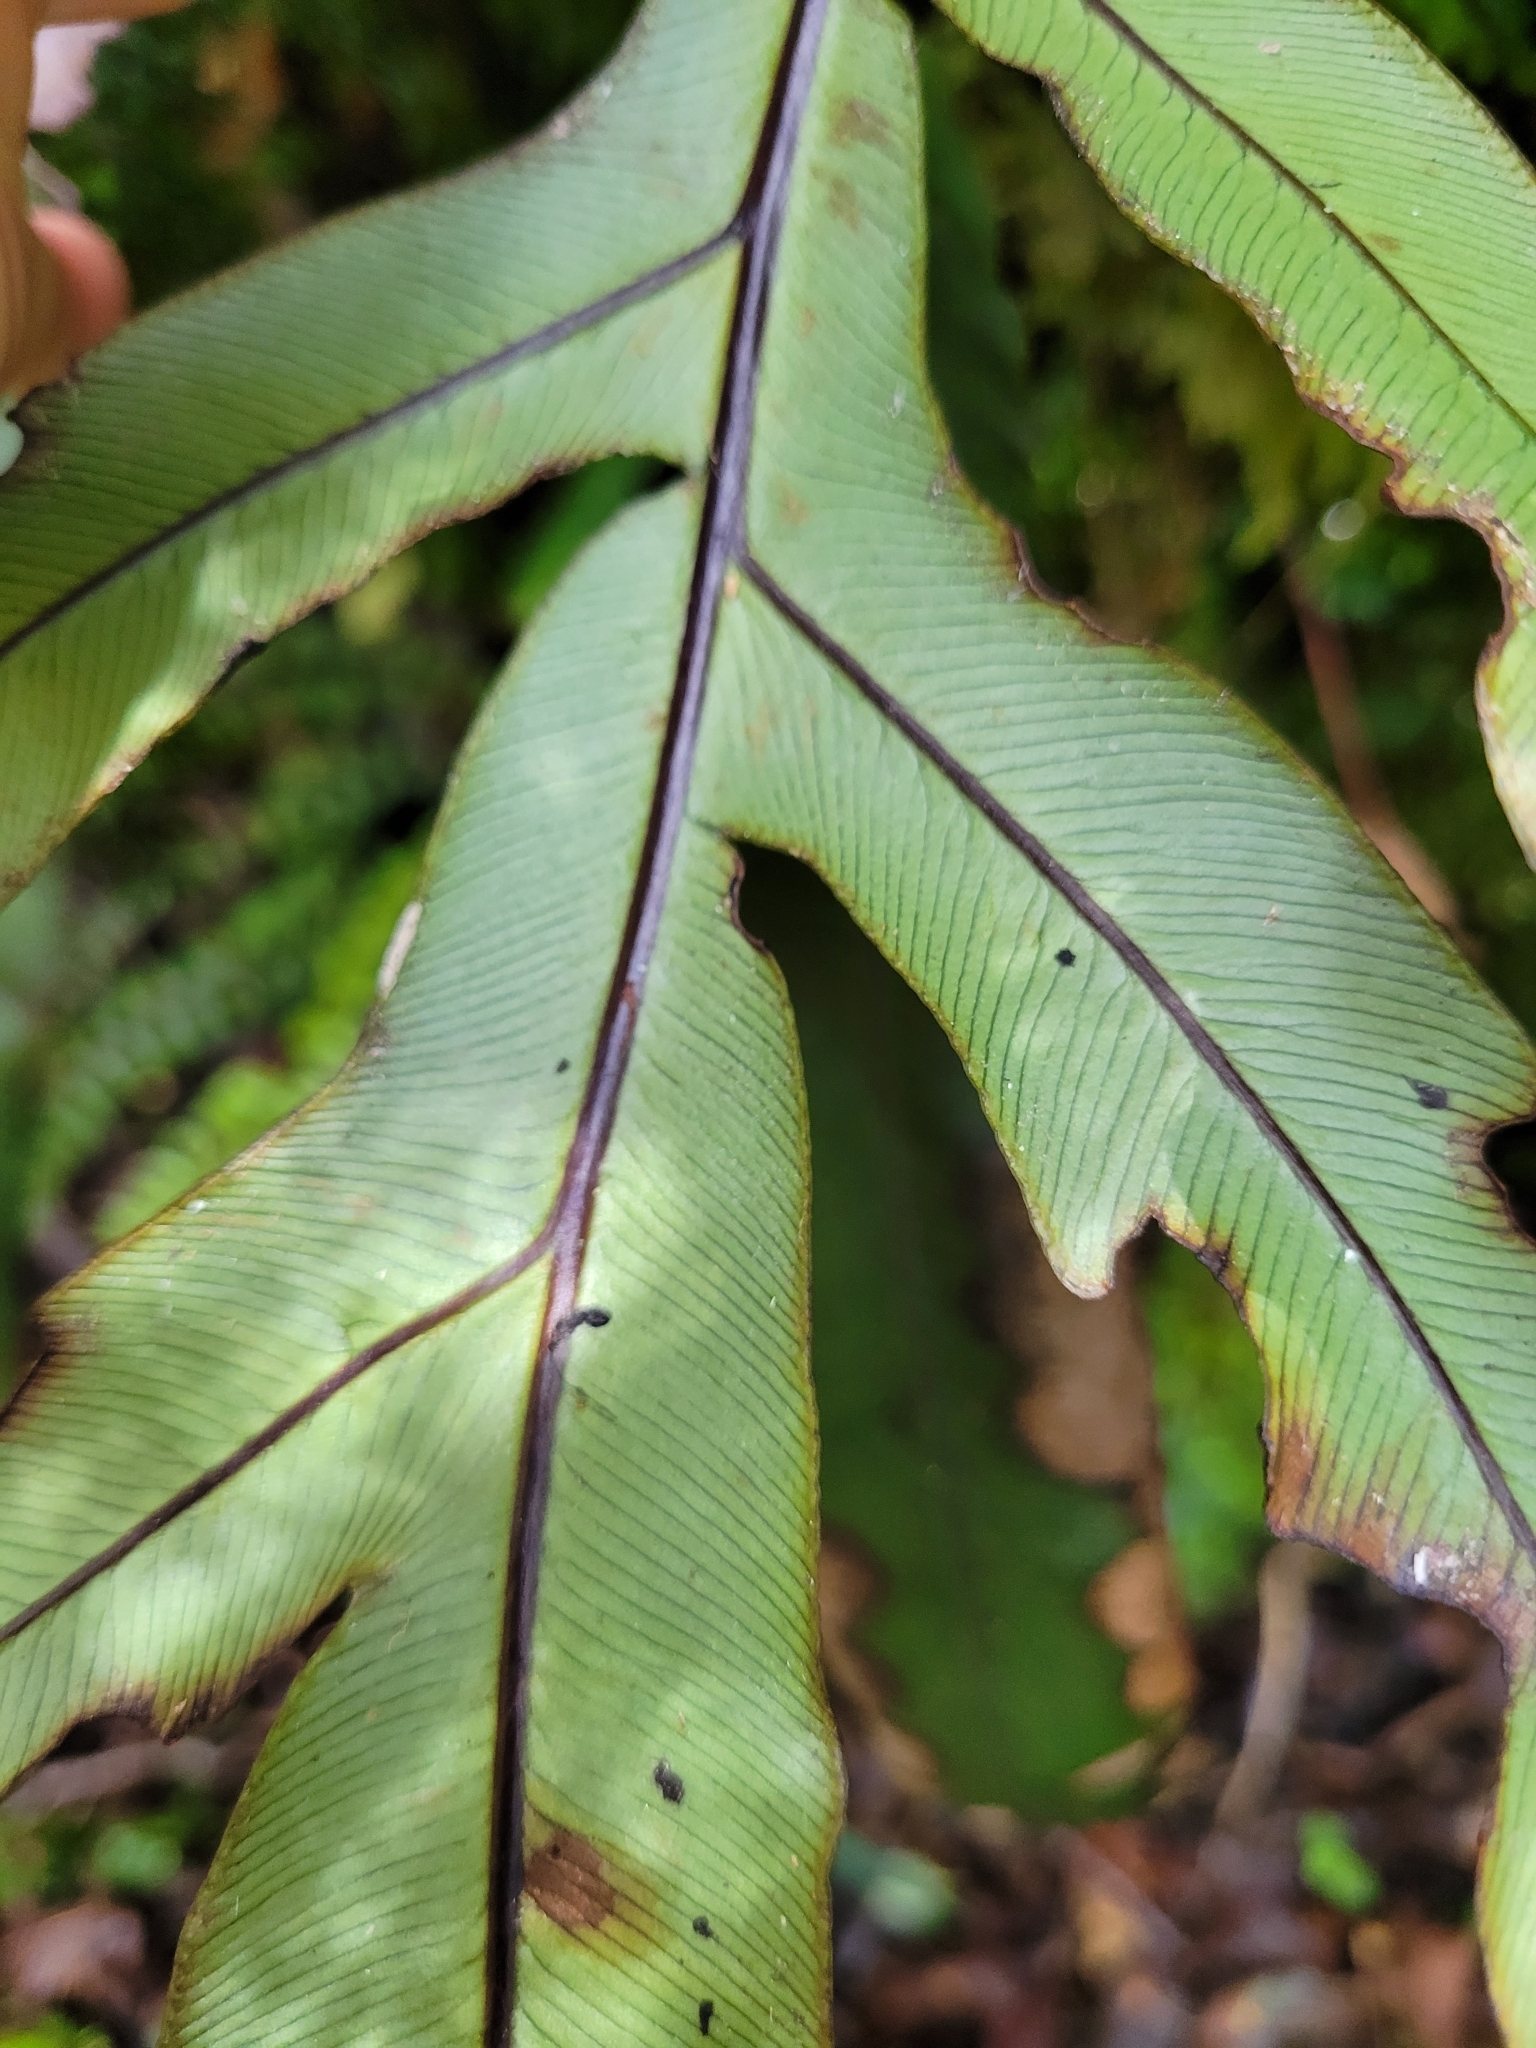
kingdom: Plantae
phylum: Tracheophyta
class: Polypodiopsida
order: Polypodiales
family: Blechnaceae
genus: Austroblechnum
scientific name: Austroblechnum colensoi
